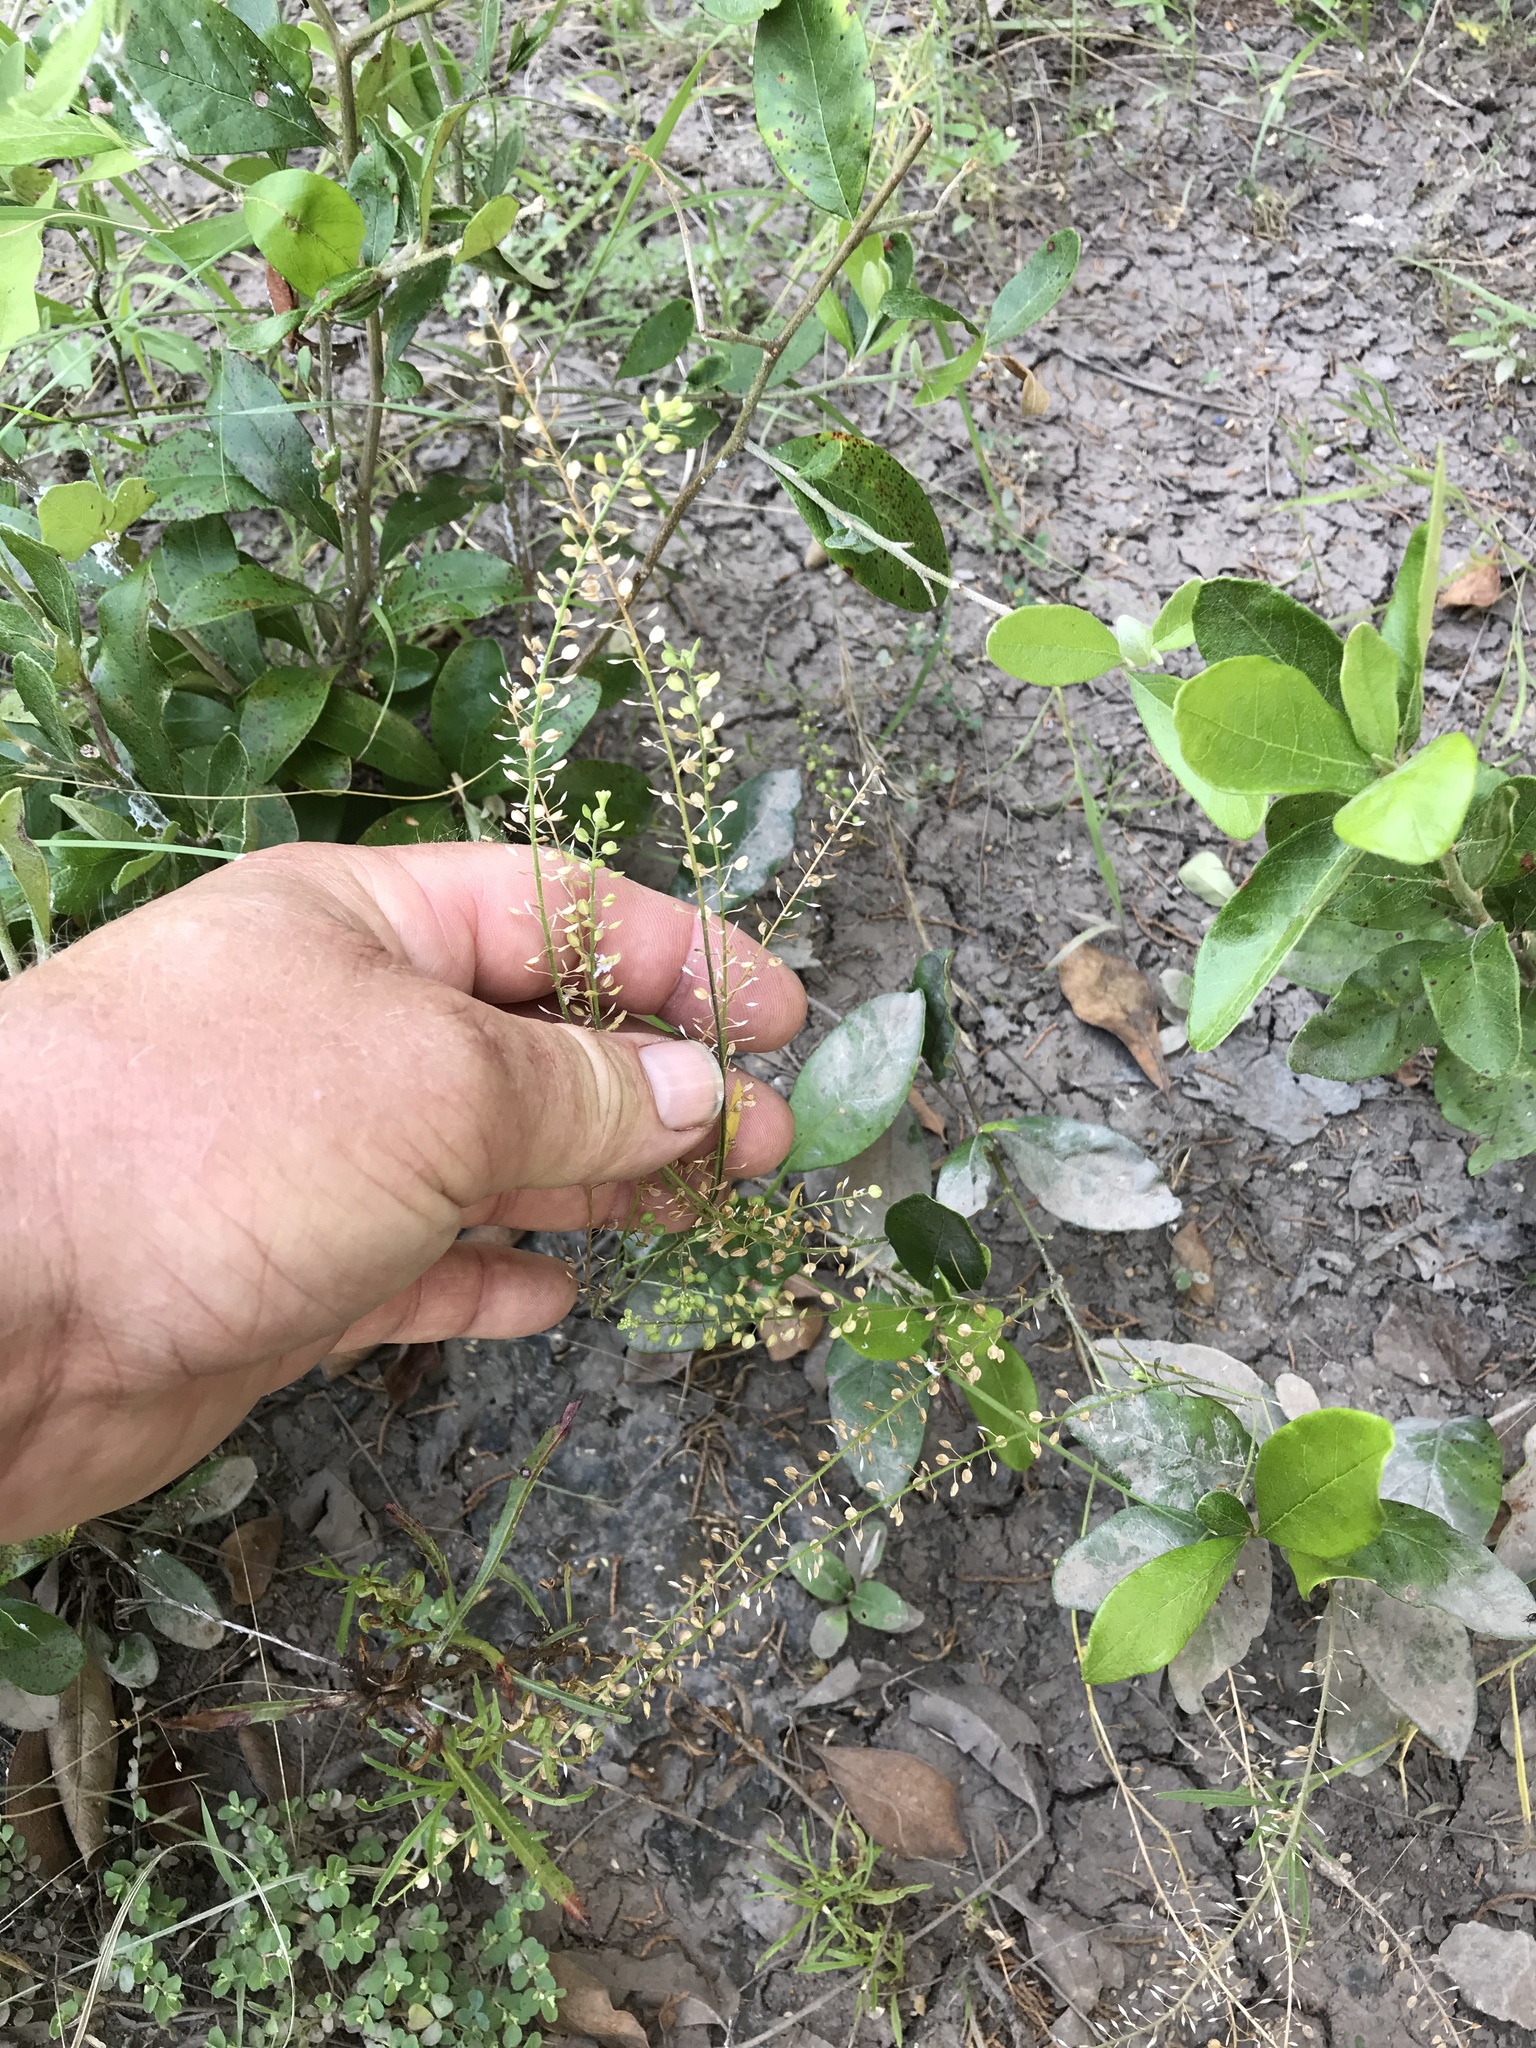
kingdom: Plantae
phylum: Tracheophyta
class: Magnoliopsida
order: Brassicales
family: Brassicaceae
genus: Lepidium
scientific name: Lepidium virginicum
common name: Least pepperwort
